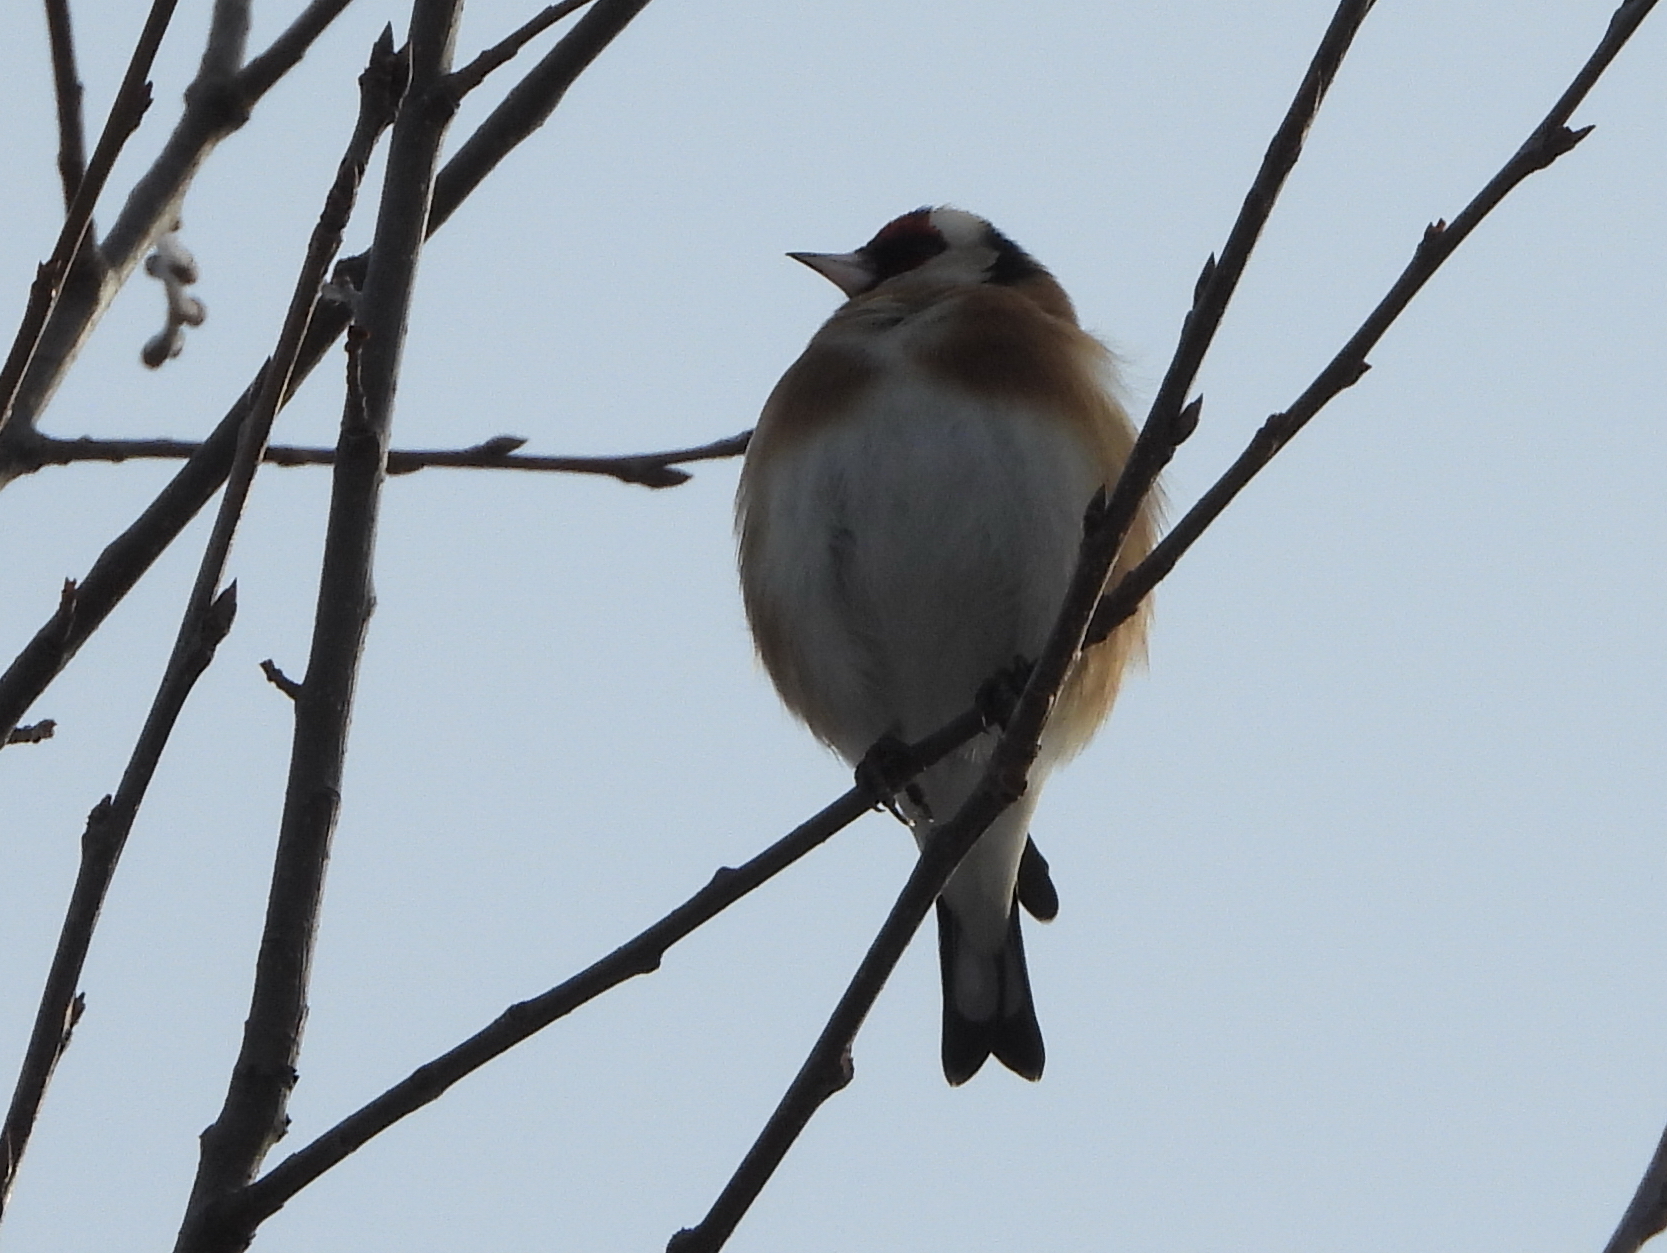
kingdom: Animalia
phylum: Chordata
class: Aves
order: Passeriformes
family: Fringillidae
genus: Carduelis
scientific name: Carduelis carduelis
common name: European goldfinch
